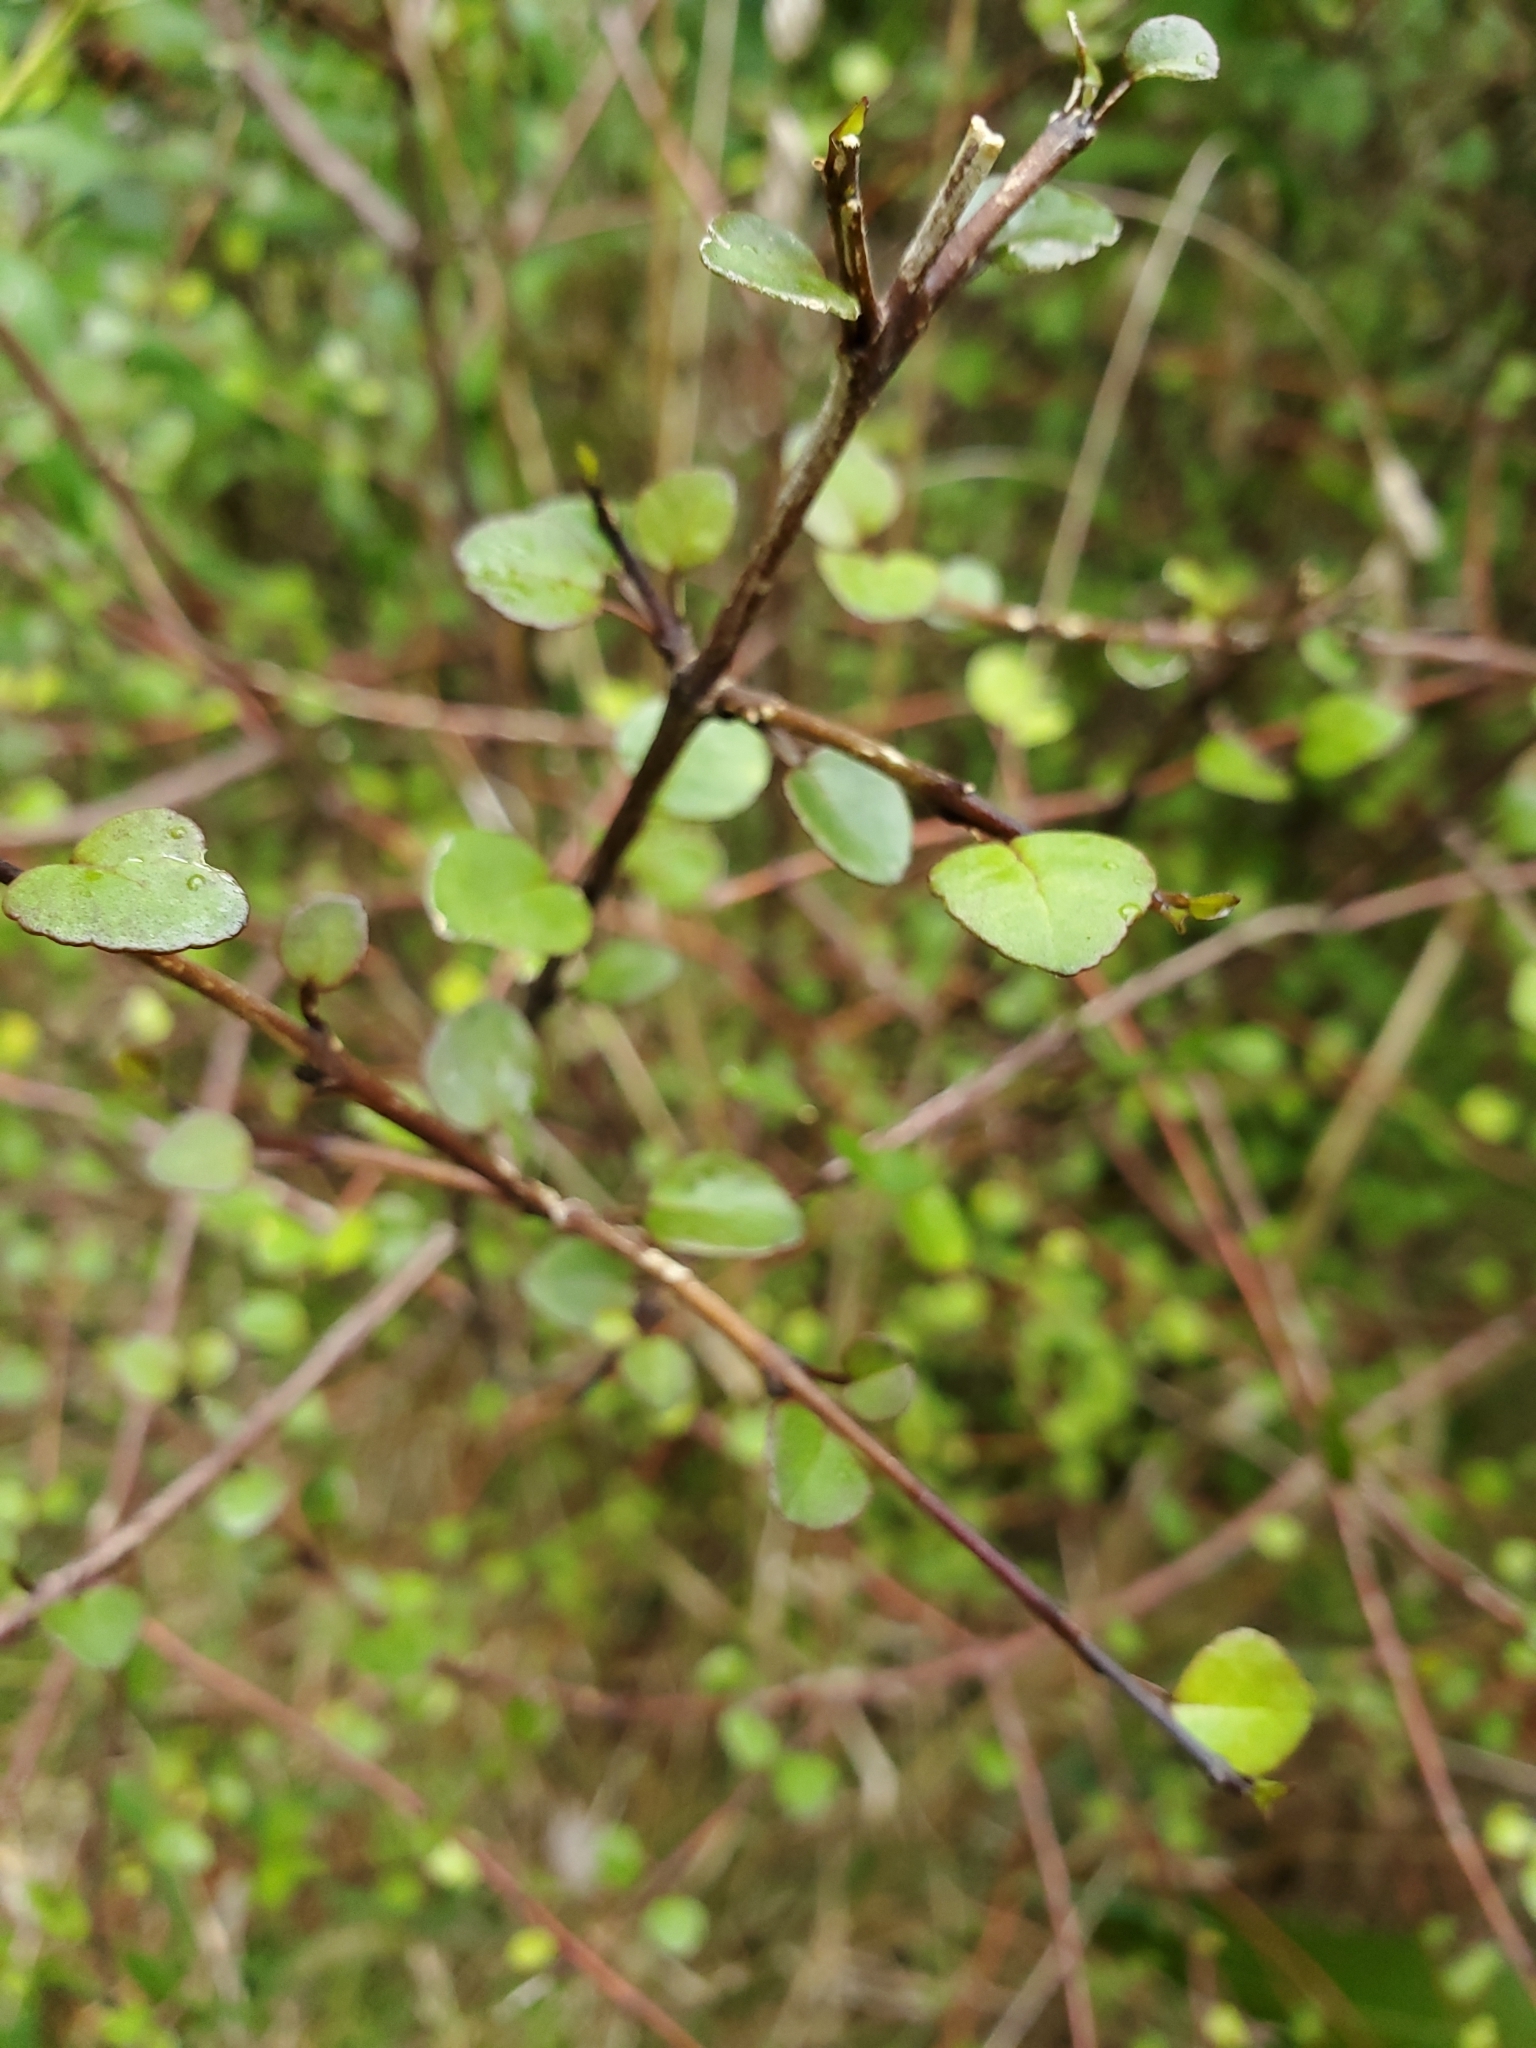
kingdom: Plantae
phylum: Tracheophyta
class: Magnoliopsida
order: Sapindales
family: Rutaceae
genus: Melicope
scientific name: Melicope simplex
